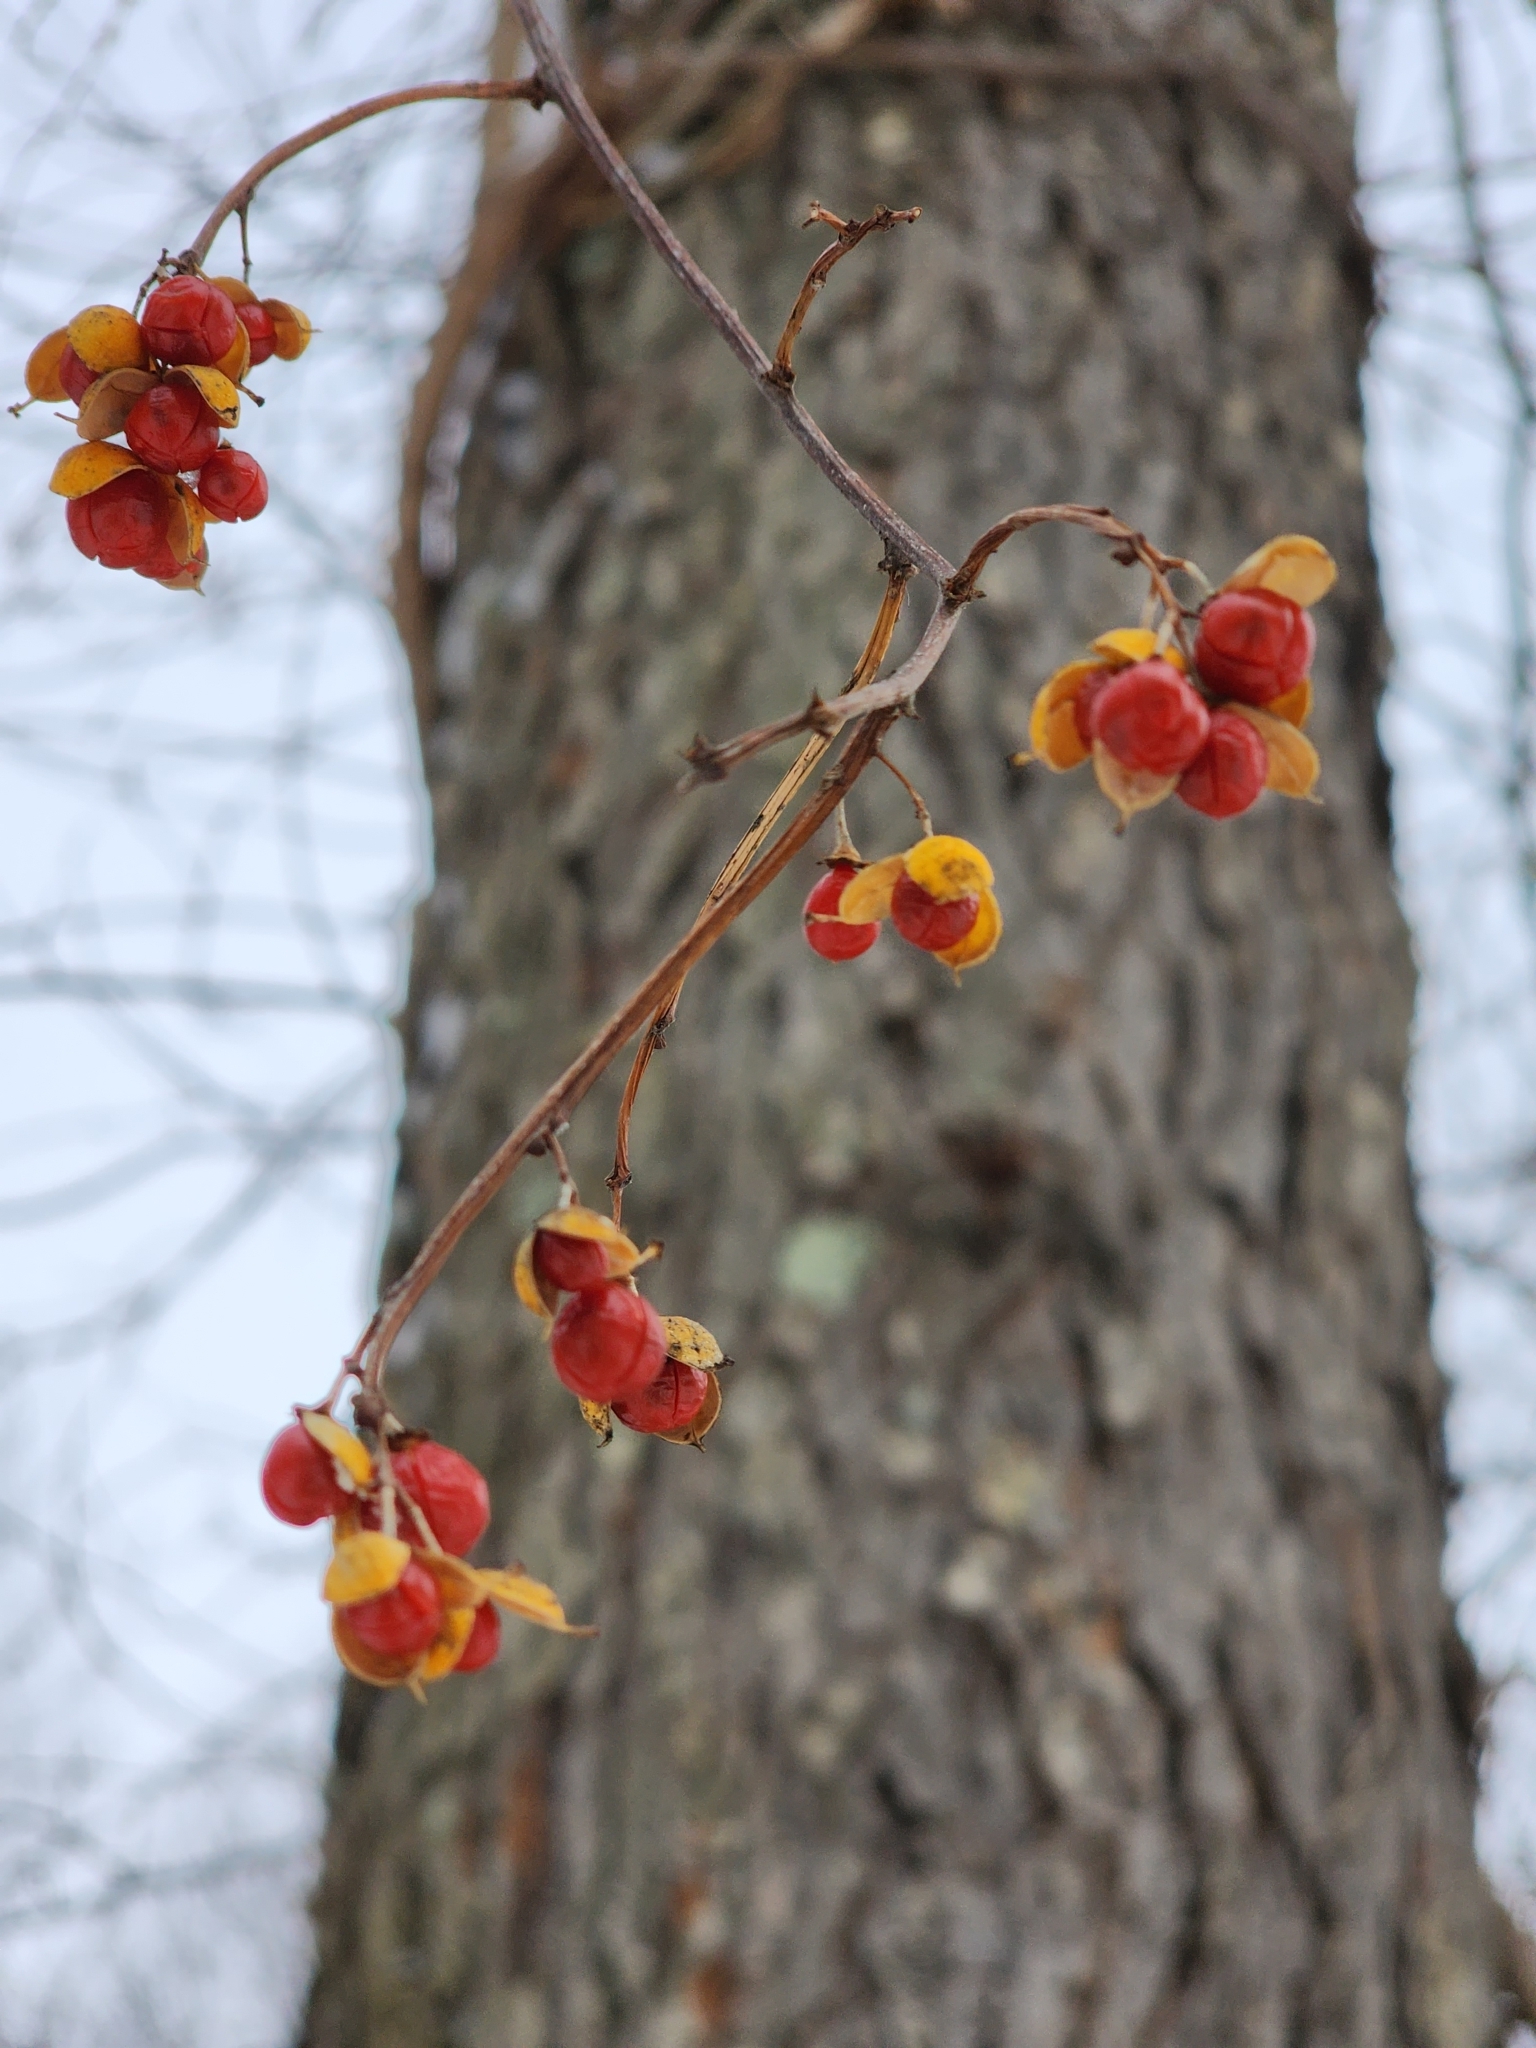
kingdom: Plantae
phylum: Tracheophyta
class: Magnoliopsida
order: Celastrales
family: Celastraceae
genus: Celastrus
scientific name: Celastrus orbiculatus
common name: Oriental bittersweet
